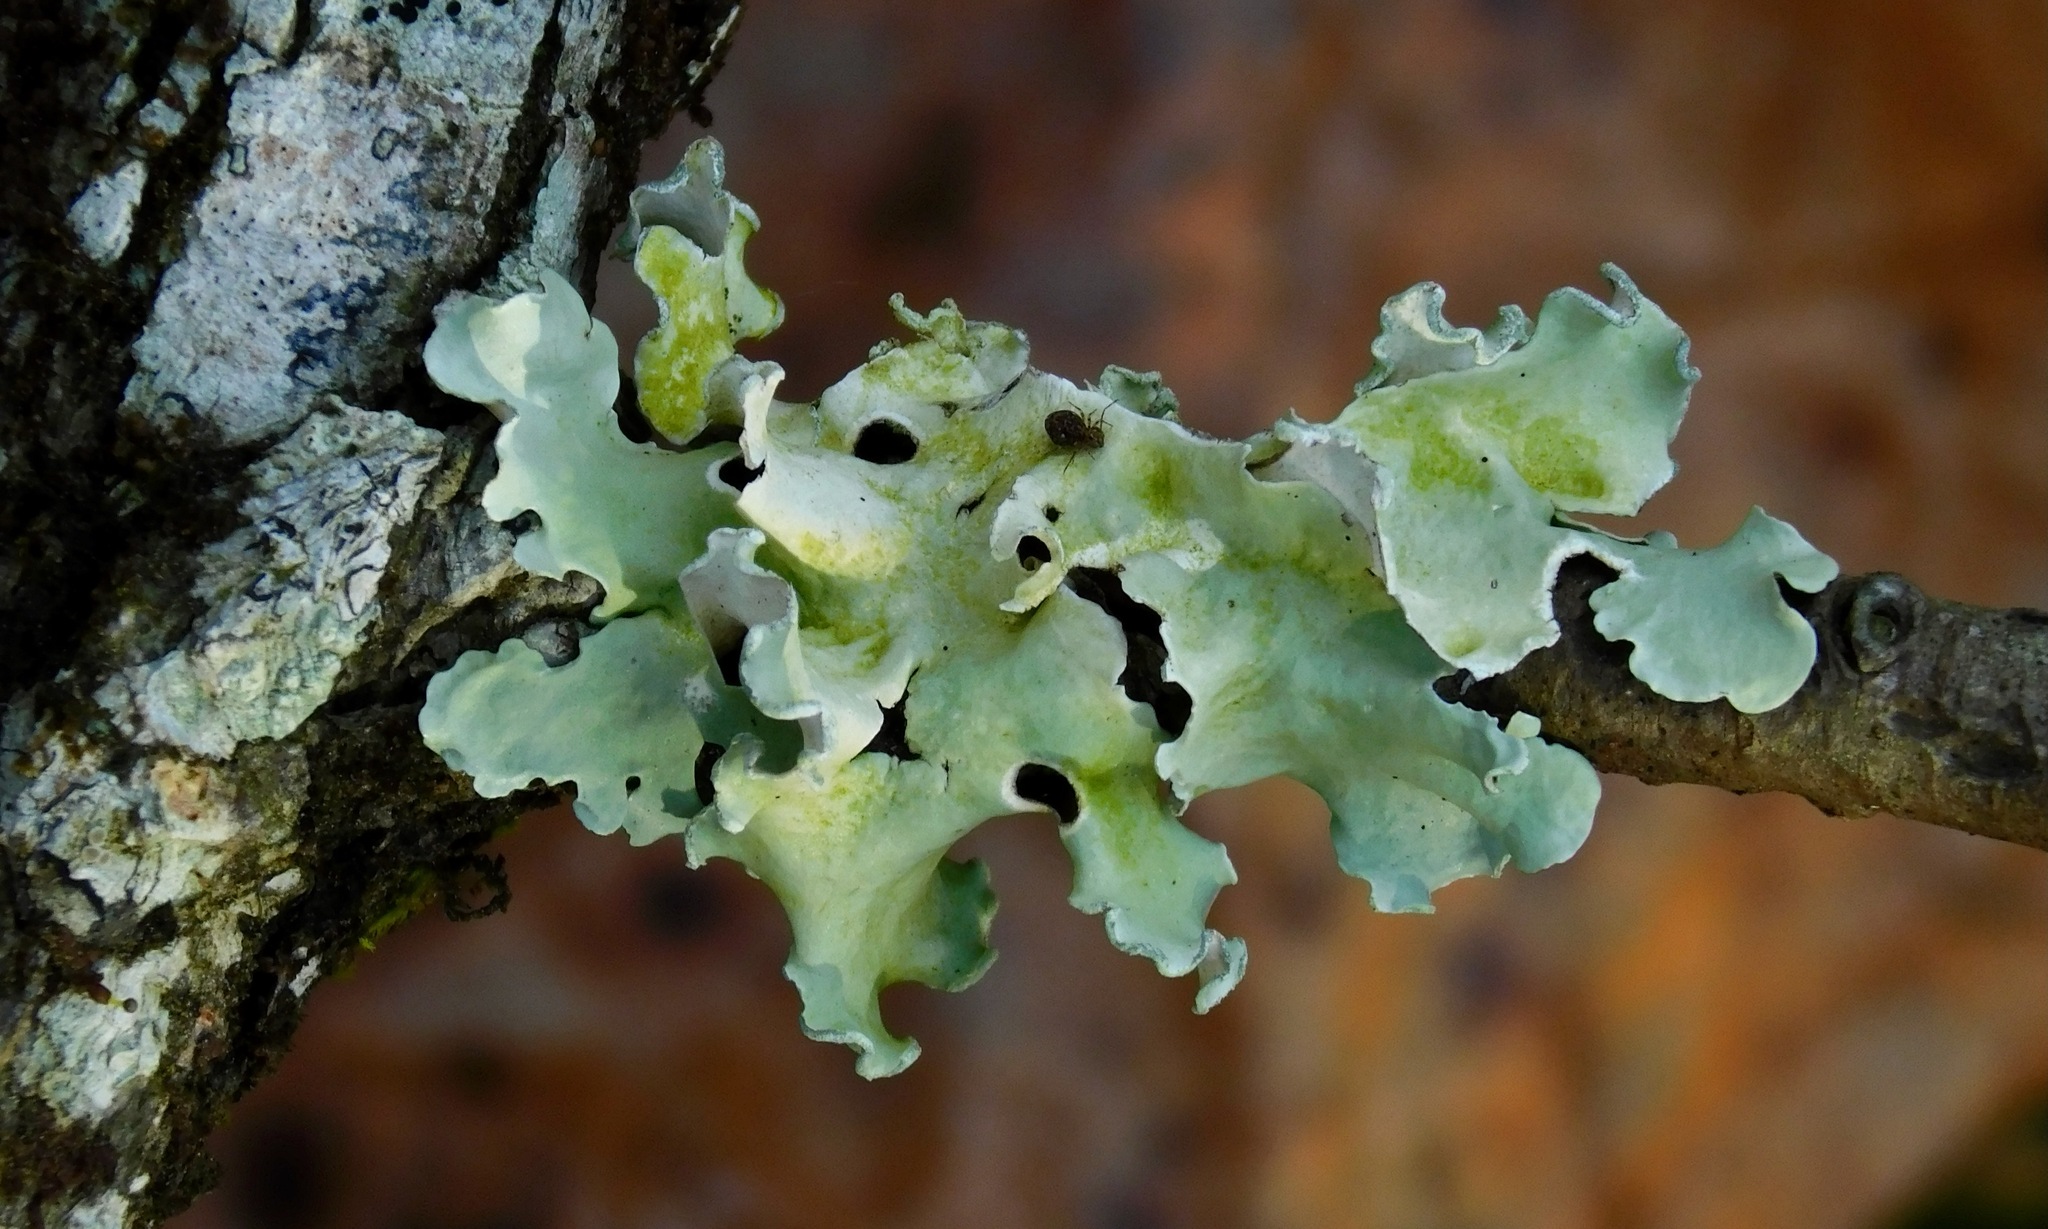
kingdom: Fungi
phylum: Ascomycota
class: Lecanoromycetes
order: Lecanorales
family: Parmeliaceae
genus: Parmotrema
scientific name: Parmotrema austrosinense
